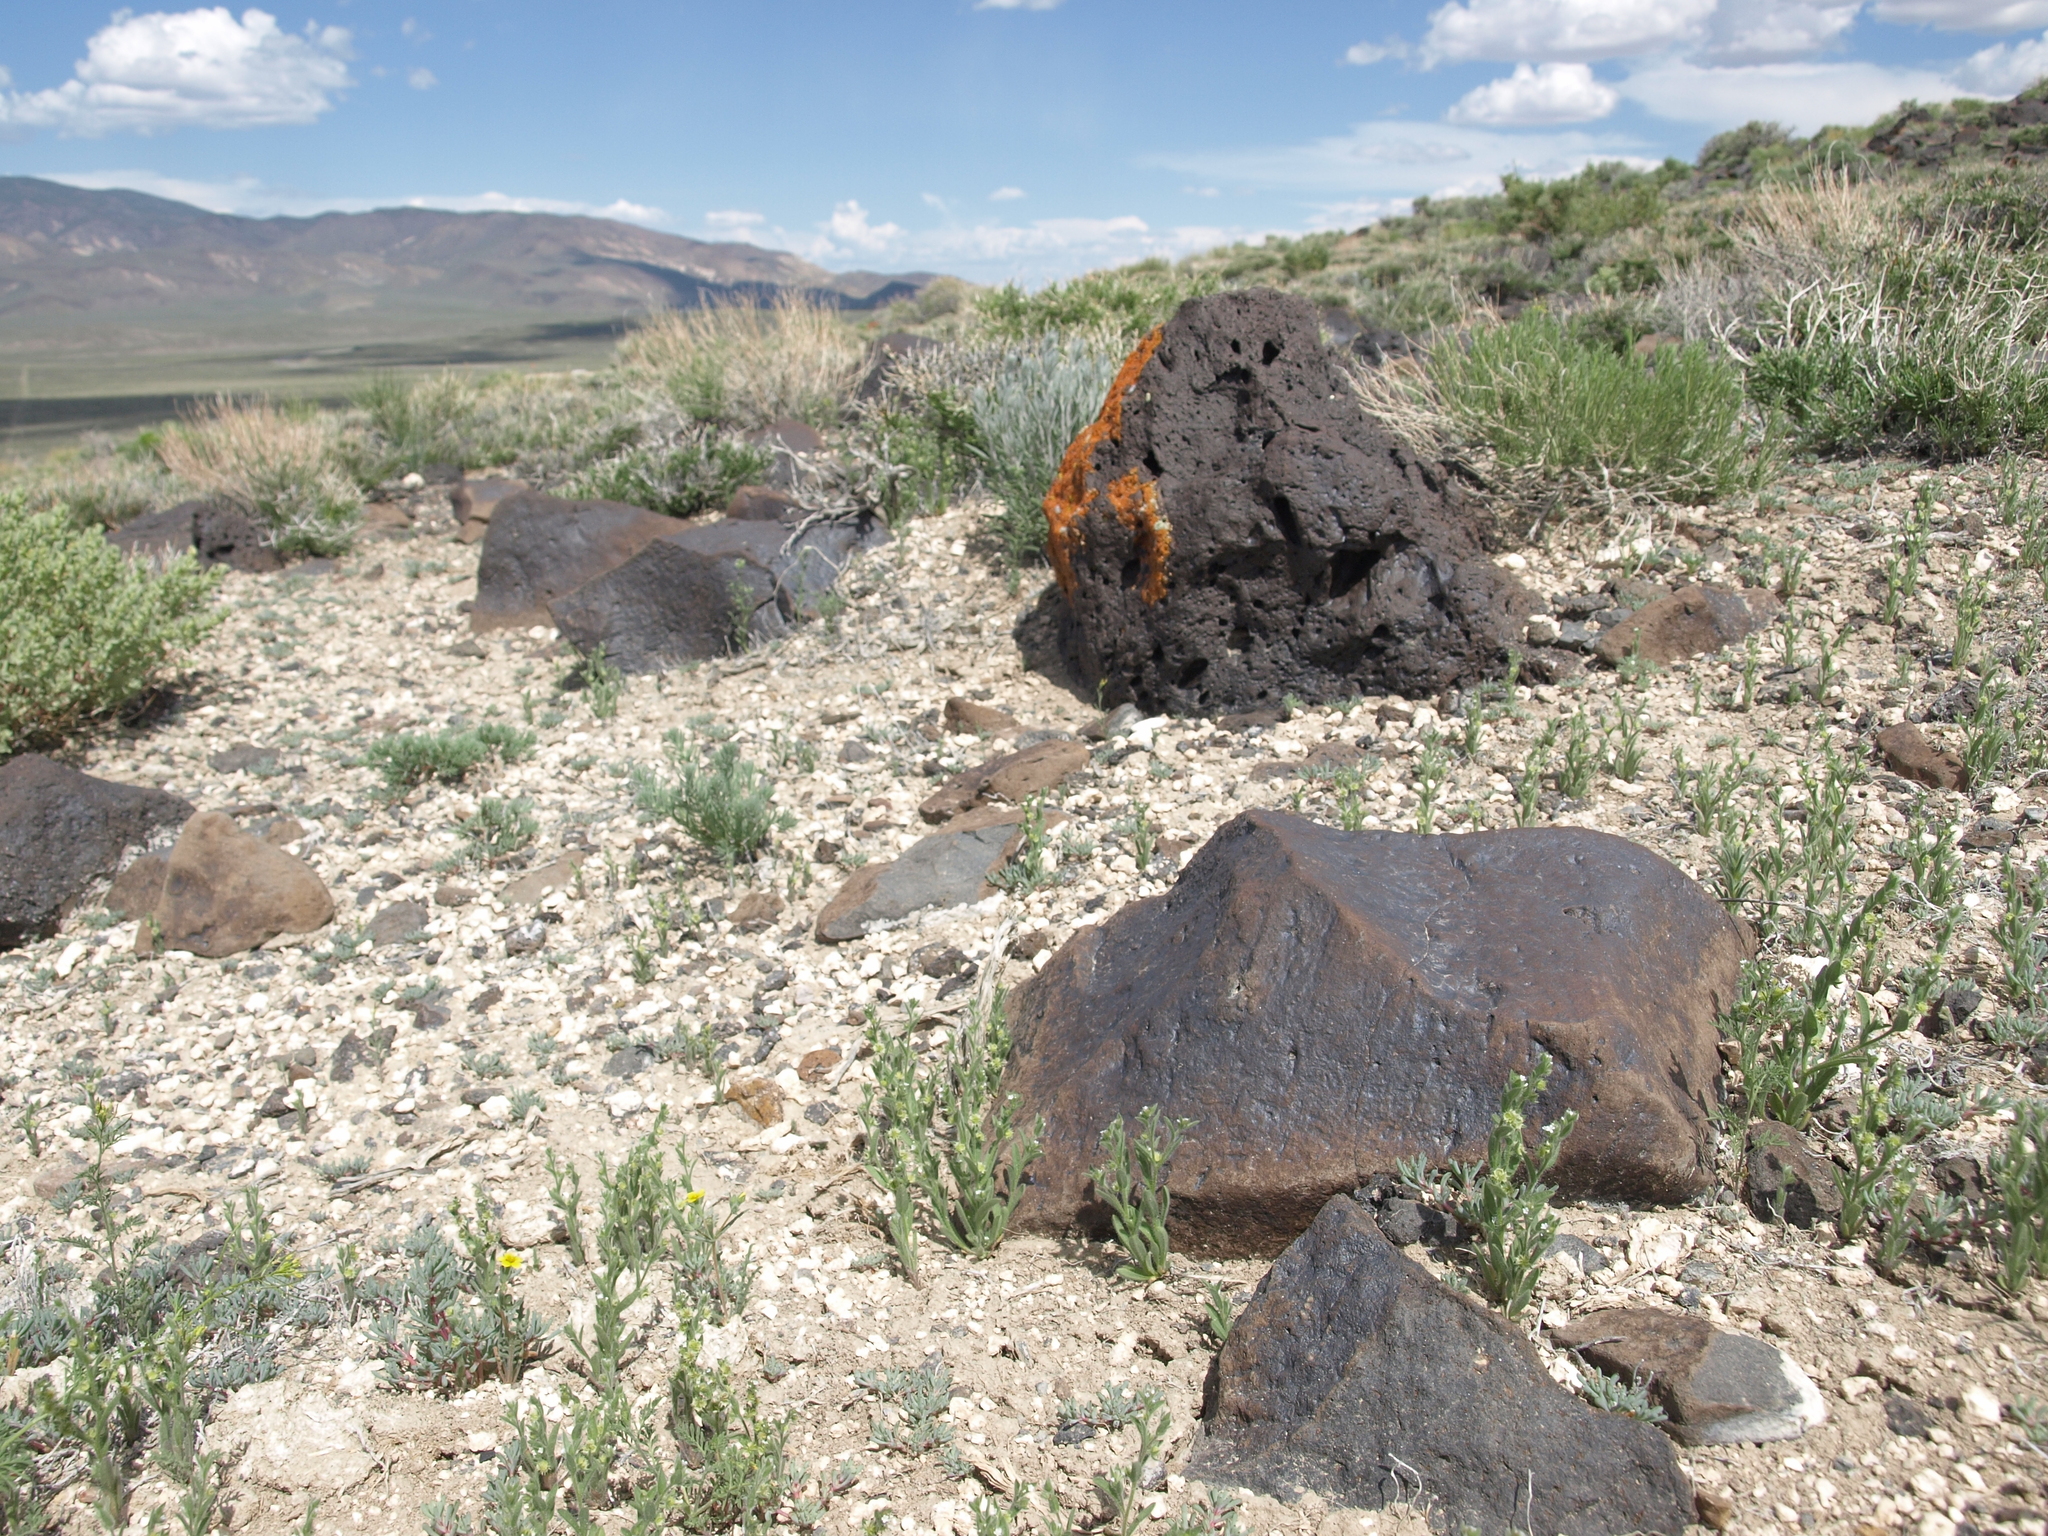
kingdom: Plantae
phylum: Tracheophyta
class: Magnoliopsida
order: Boraginales
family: Boraginaceae
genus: Lappula
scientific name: Lappula occidentalis
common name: Western stickseed
